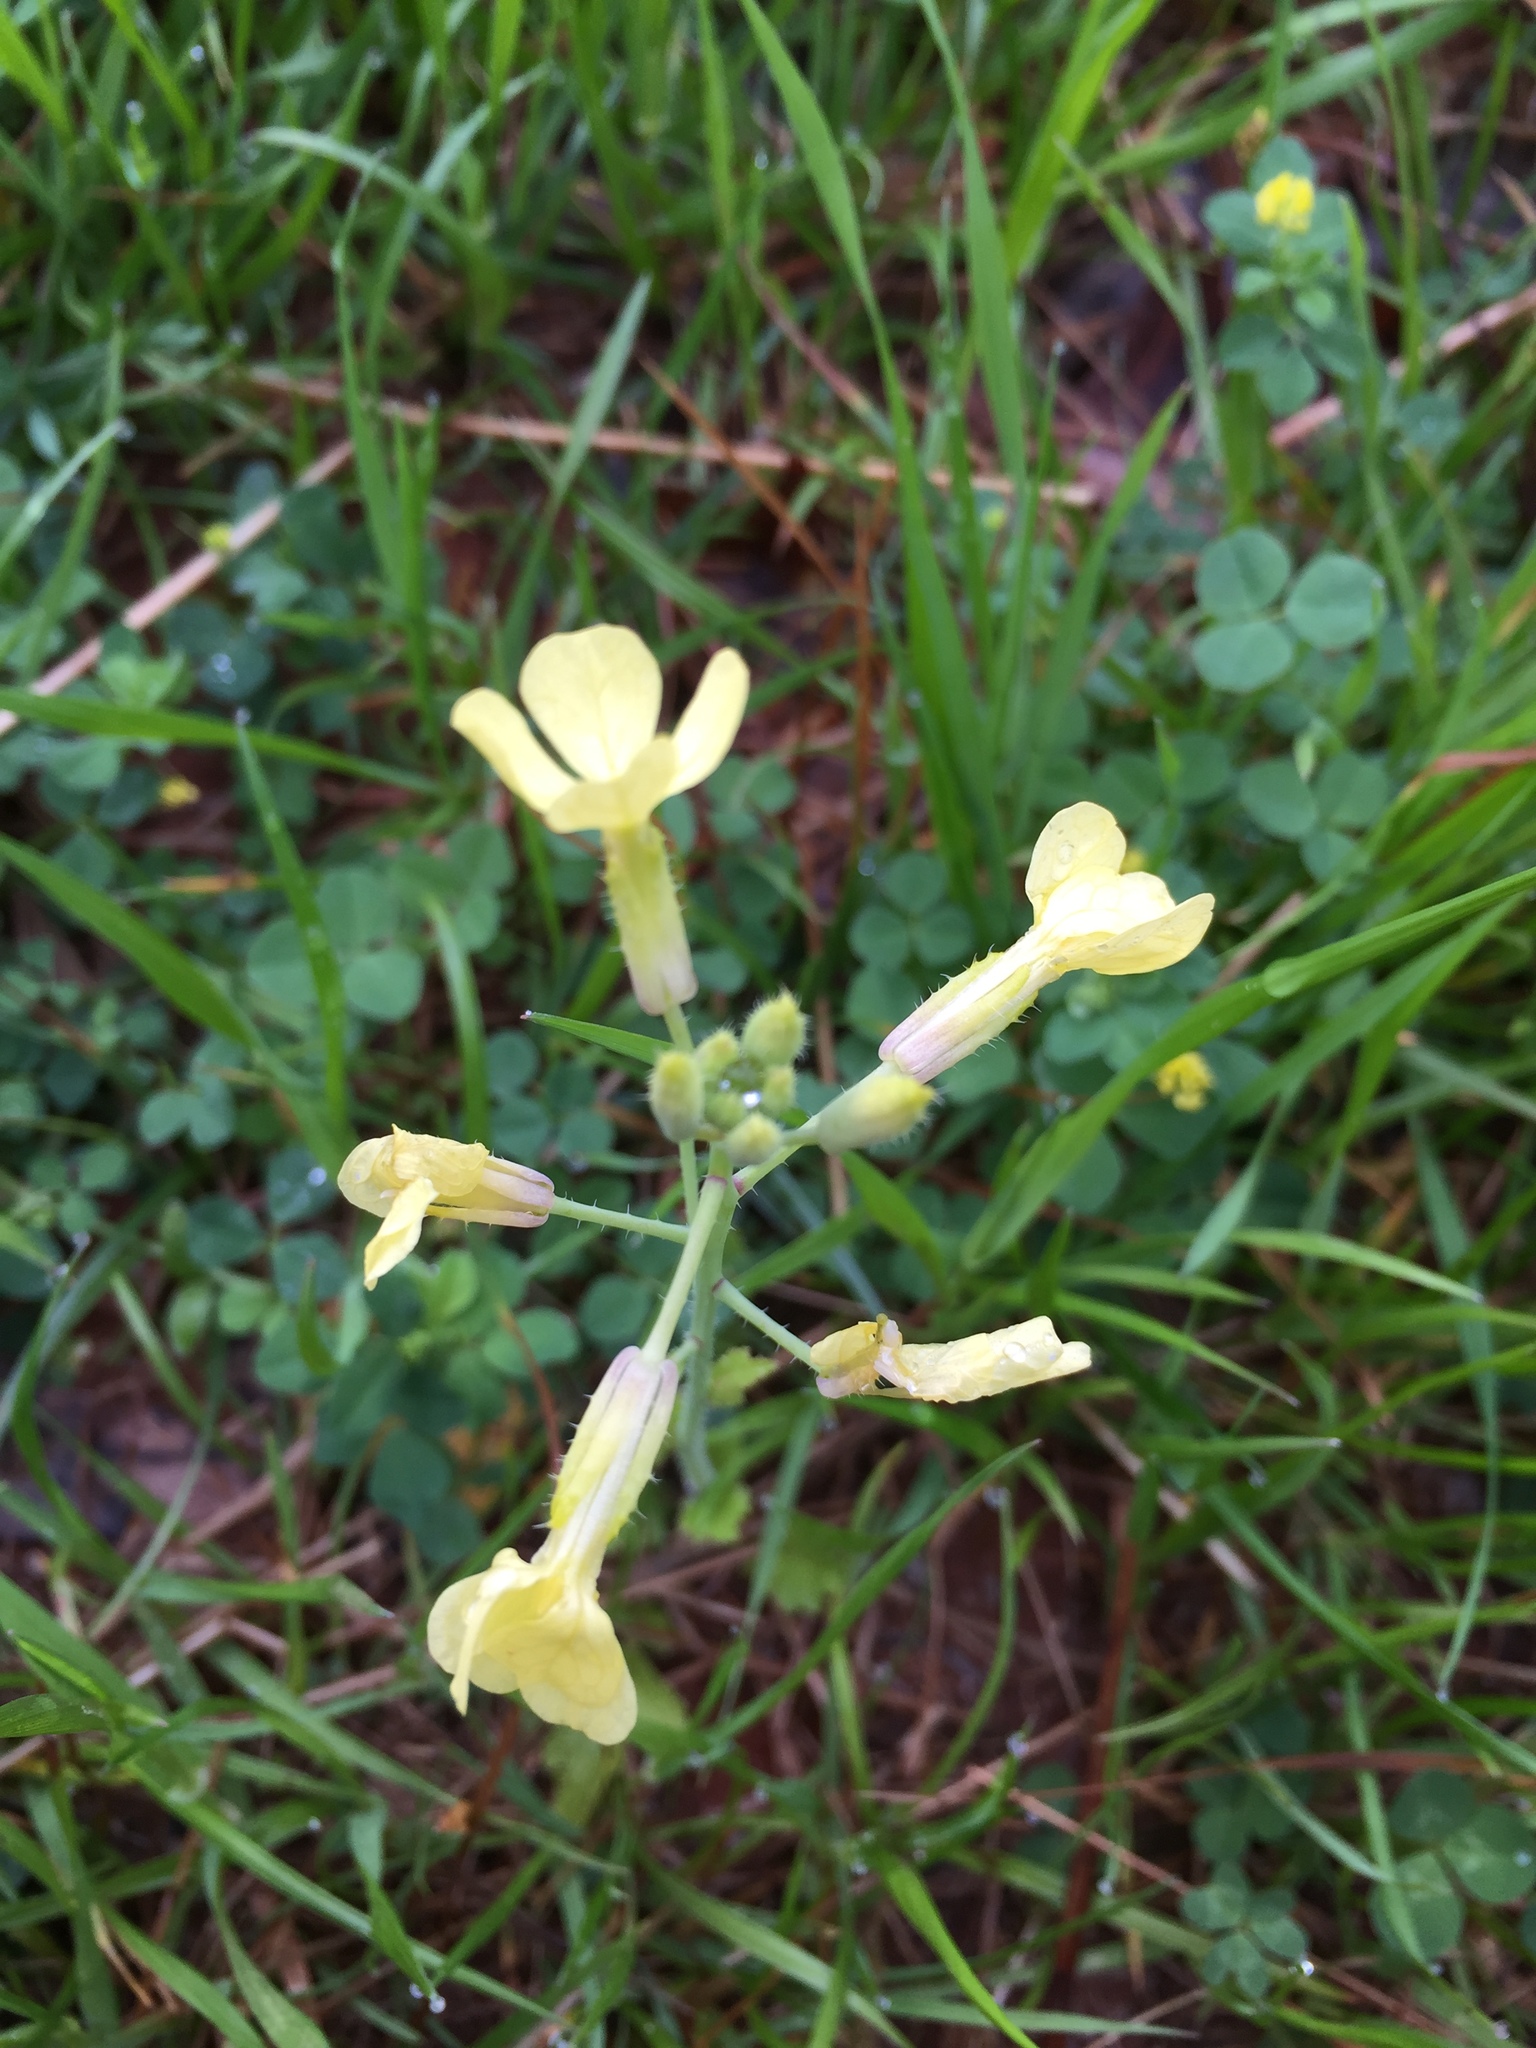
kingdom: Plantae
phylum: Tracheophyta
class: Magnoliopsida
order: Brassicales
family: Brassicaceae
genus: Raphanus
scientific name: Raphanus raphanistrum
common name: Wild radish
